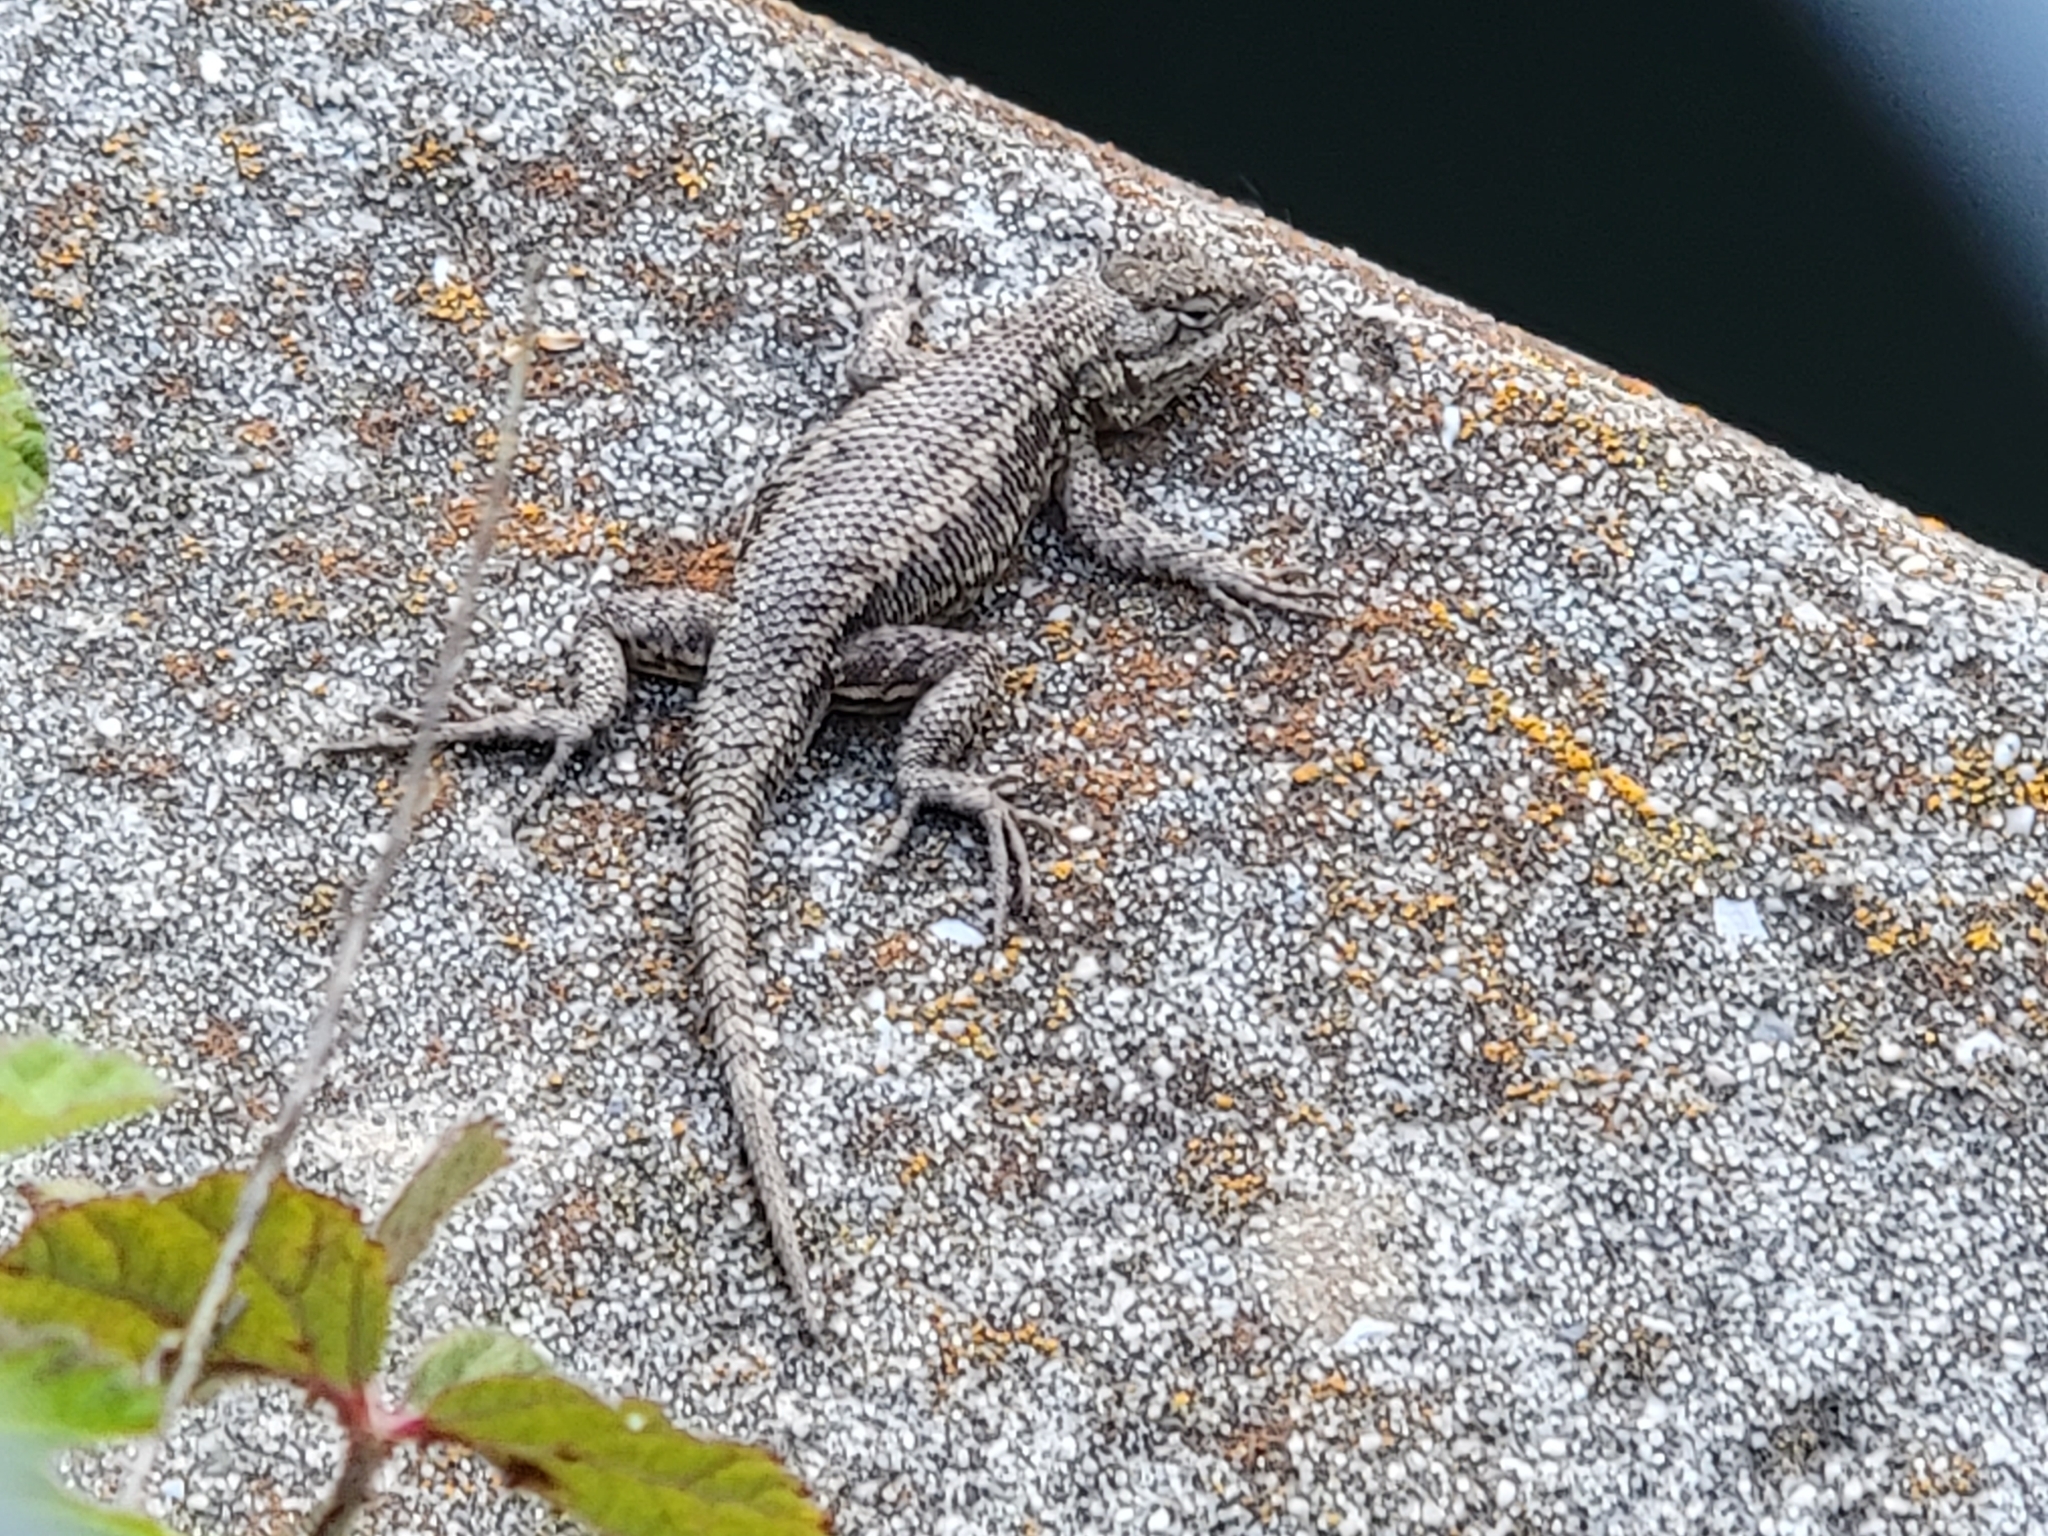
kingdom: Animalia
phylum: Chordata
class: Squamata
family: Phrynosomatidae
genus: Sceloporus
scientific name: Sceloporus occidentalis
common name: Western fence lizard
